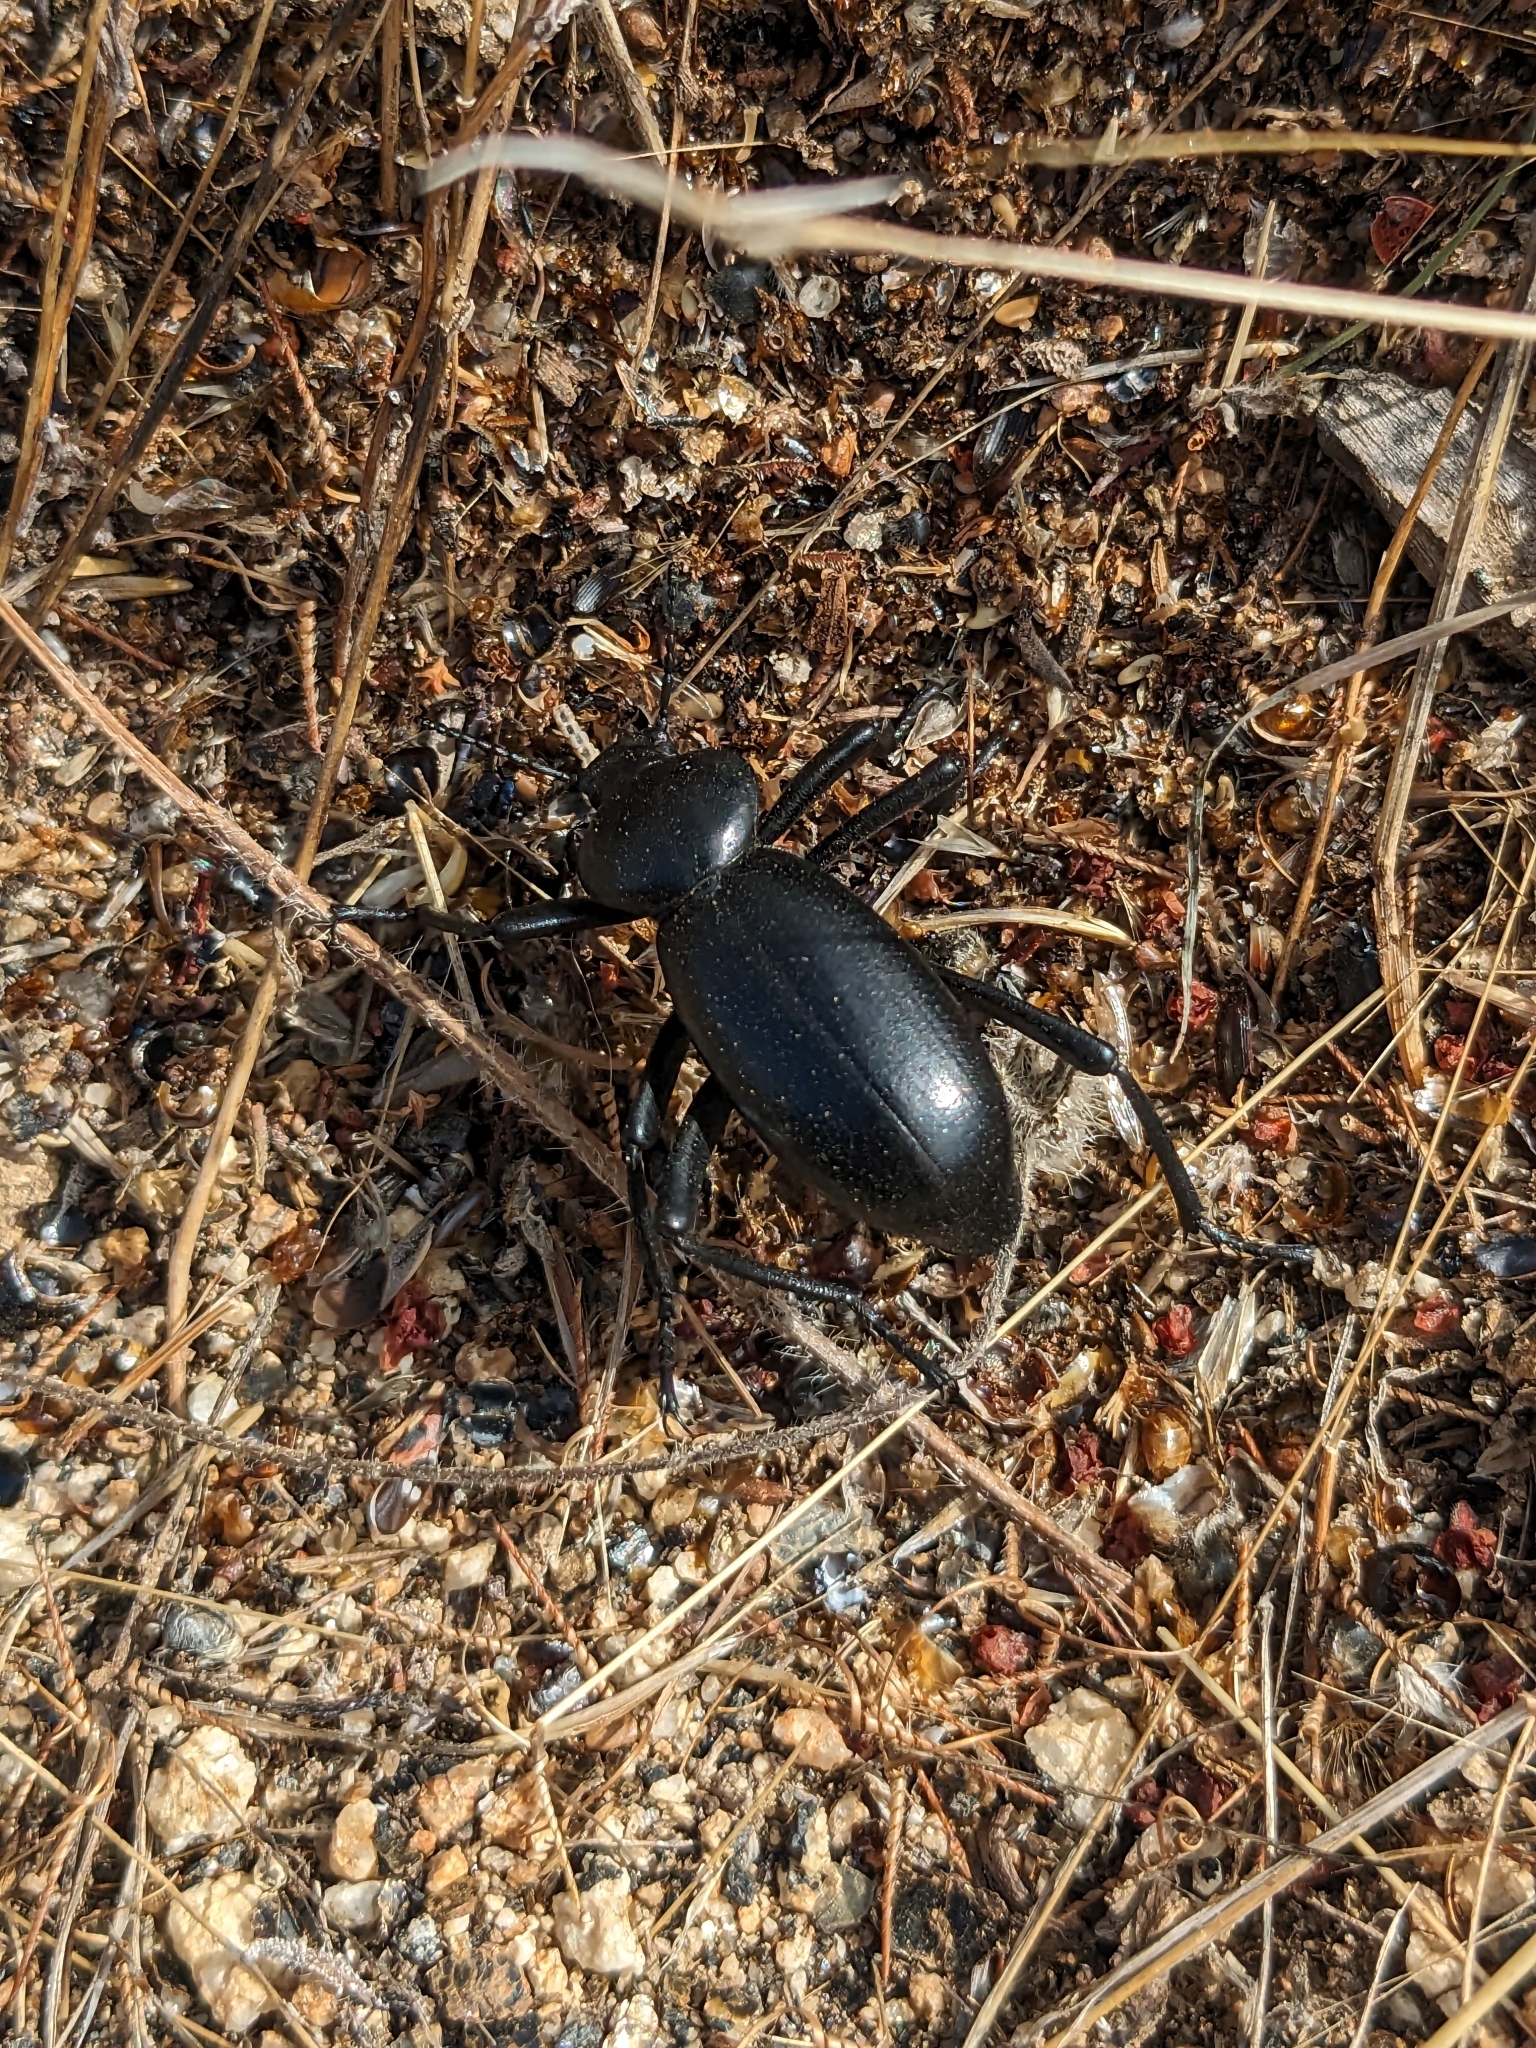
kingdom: Animalia
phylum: Arthropoda
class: Insecta
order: Coleoptera
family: Tenebrionidae
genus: Eleodes
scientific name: Eleodes grandicollis
